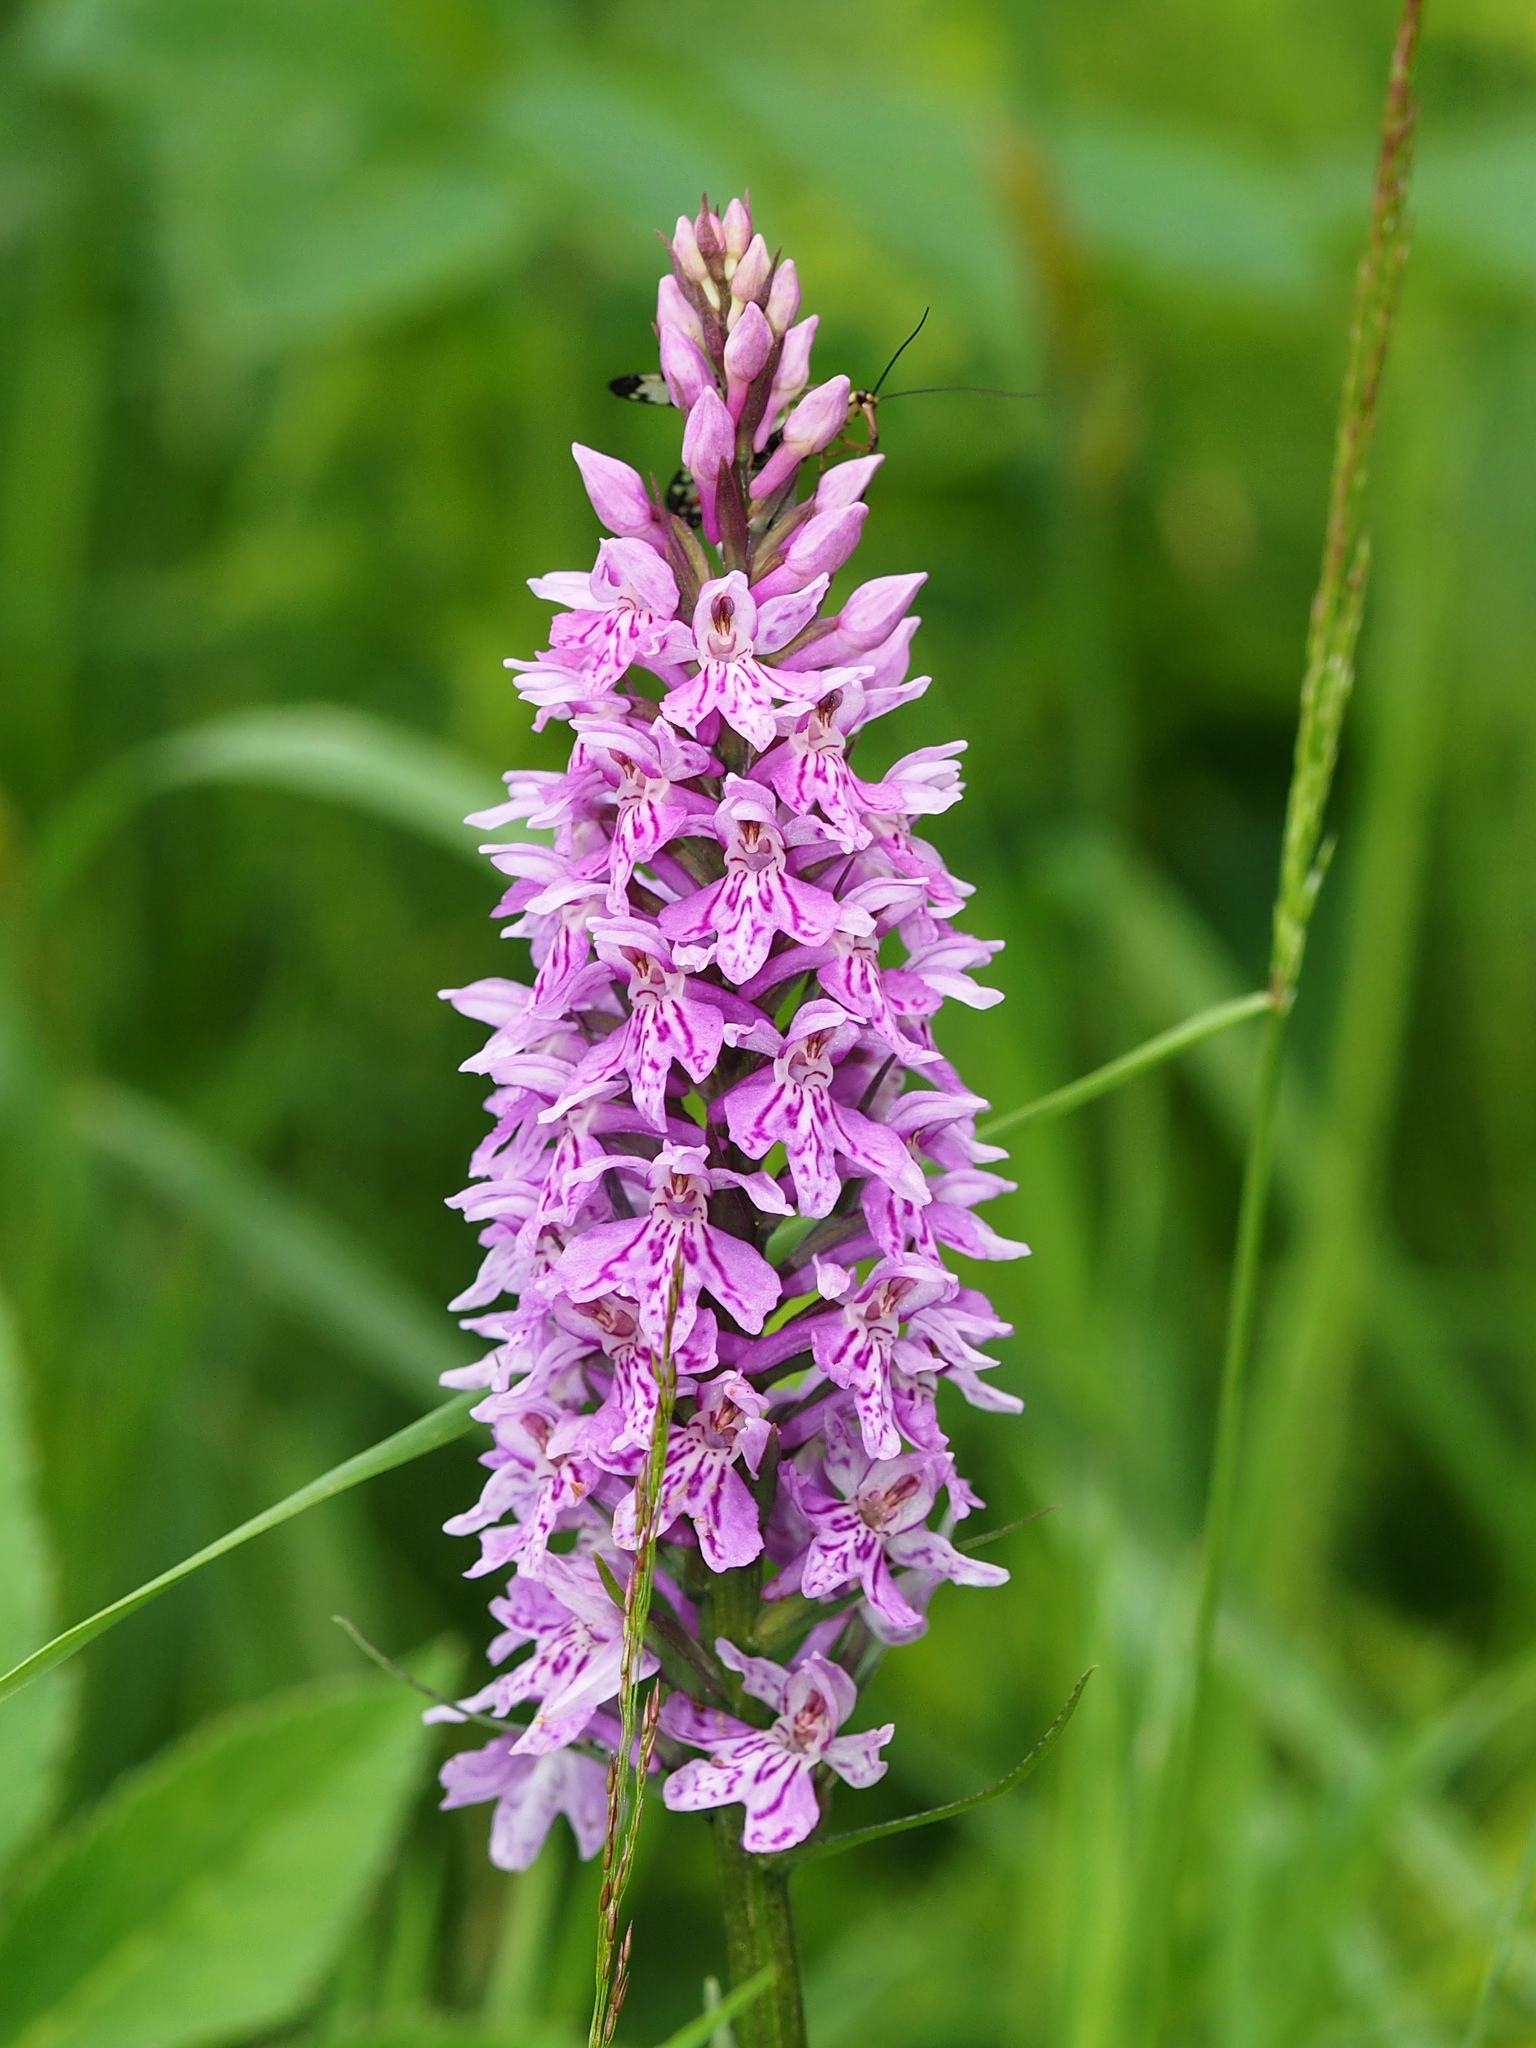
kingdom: Plantae
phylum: Tracheophyta
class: Liliopsida
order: Asparagales
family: Orchidaceae
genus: Dactylorhiza
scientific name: Dactylorhiza maculata
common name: Heath spotted-orchid
